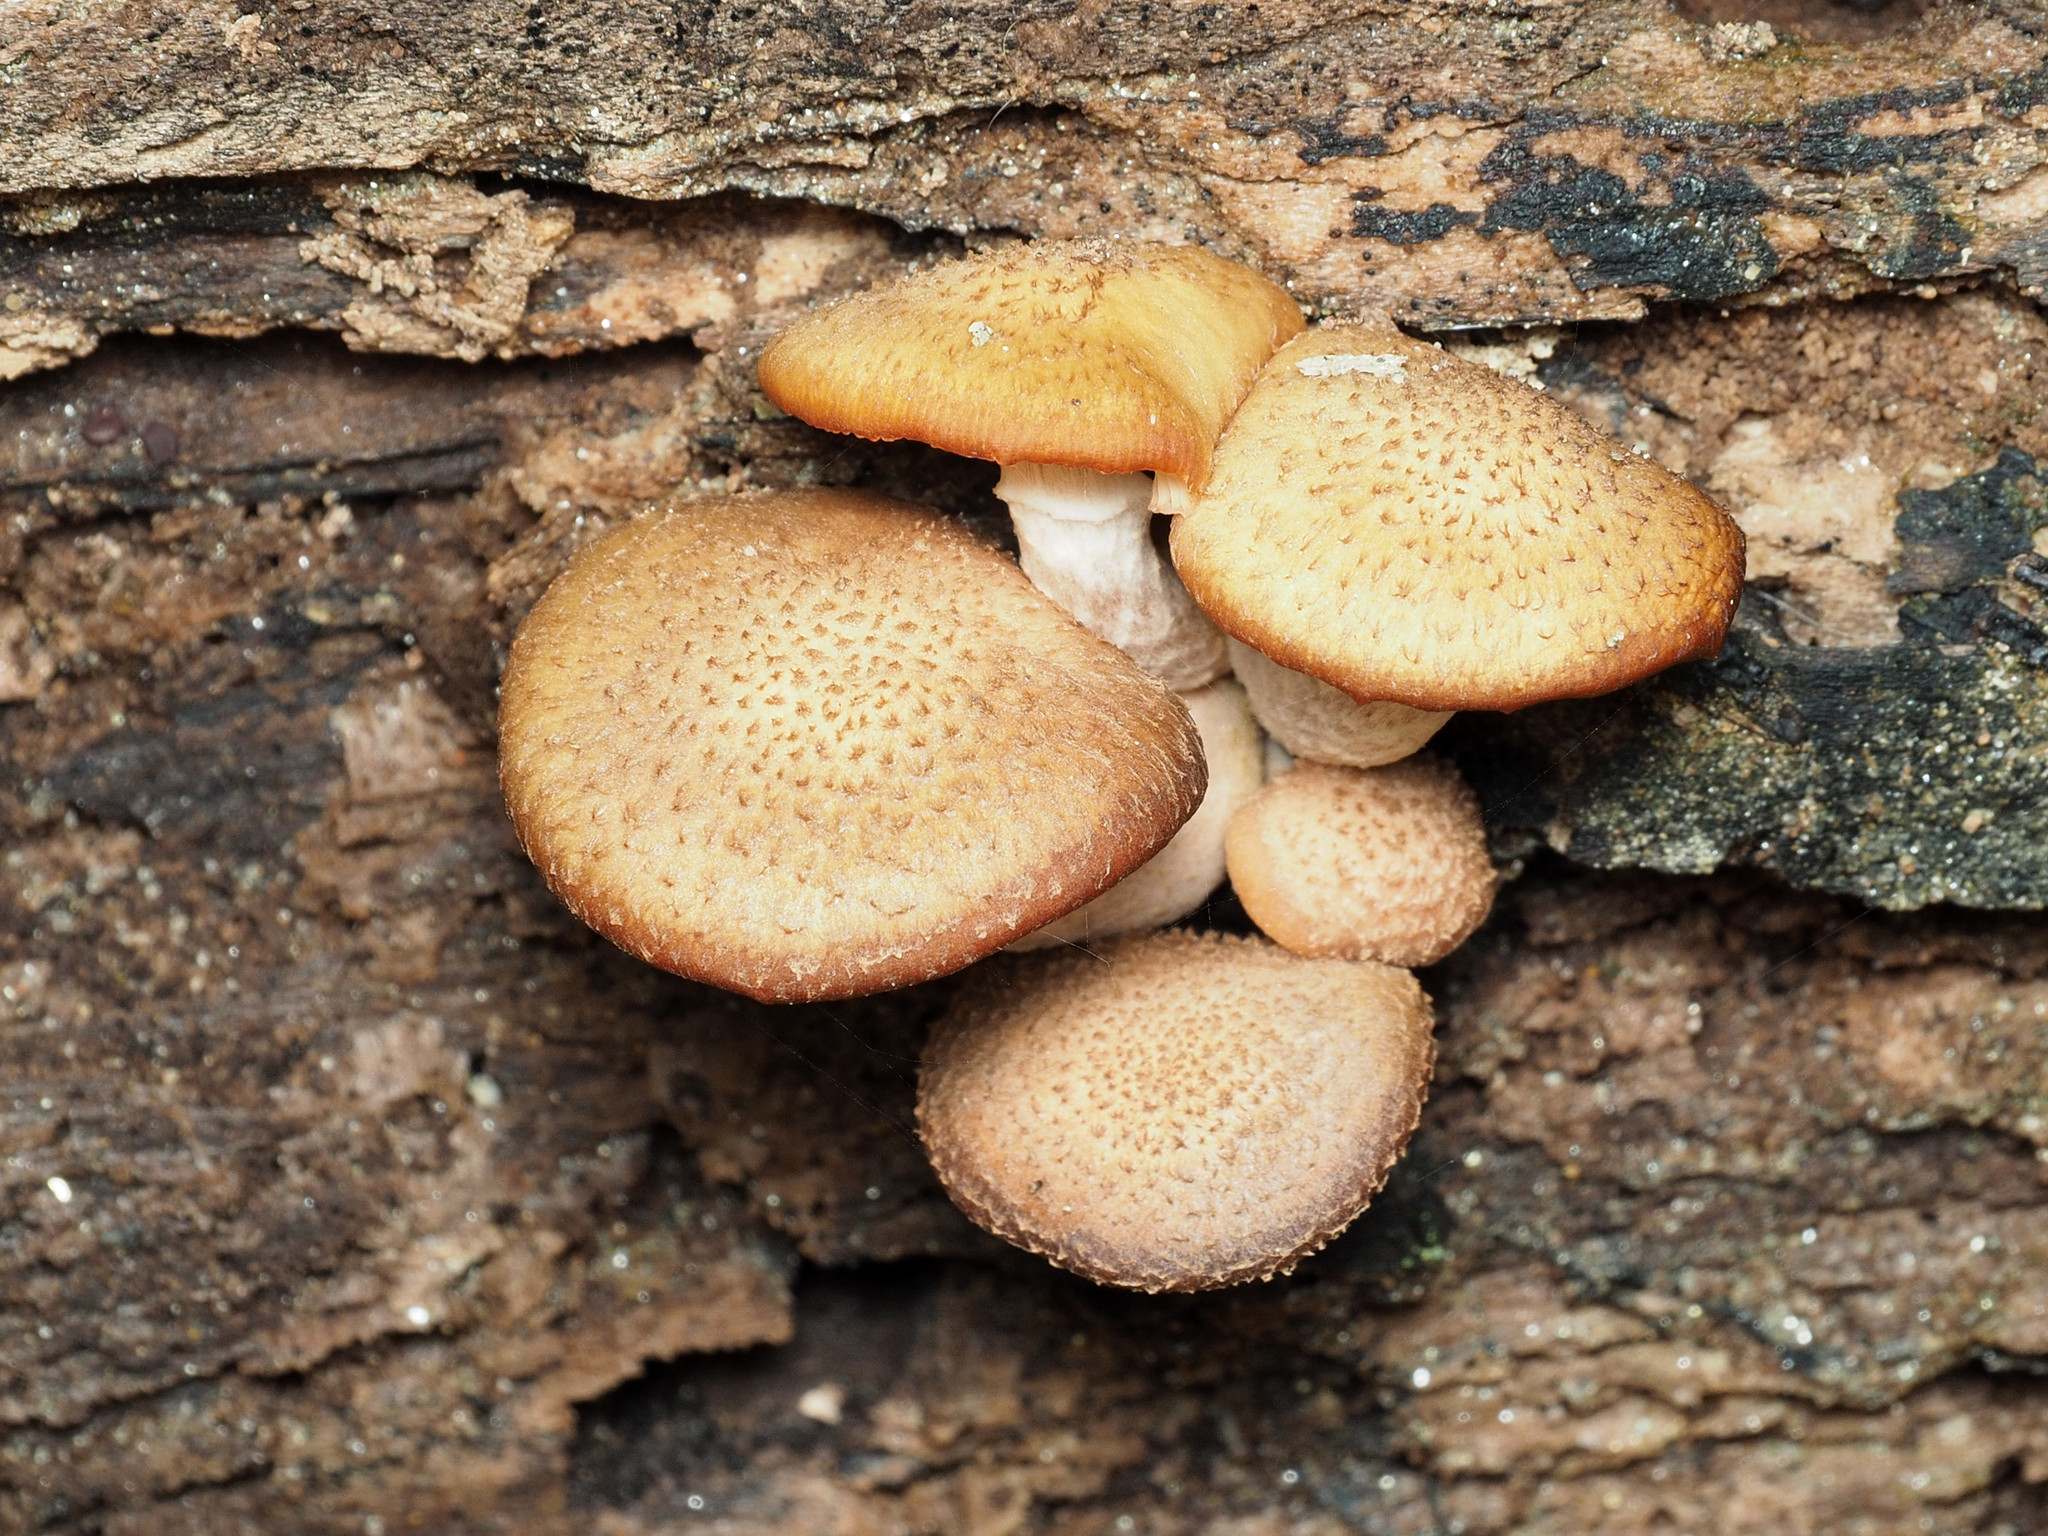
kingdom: Fungi
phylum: Basidiomycota
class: Agaricomycetes
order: Agaricales
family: Physalacriaceae
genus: Armillaria
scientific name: Armillaria gallica
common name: Bulbous honey fungus
